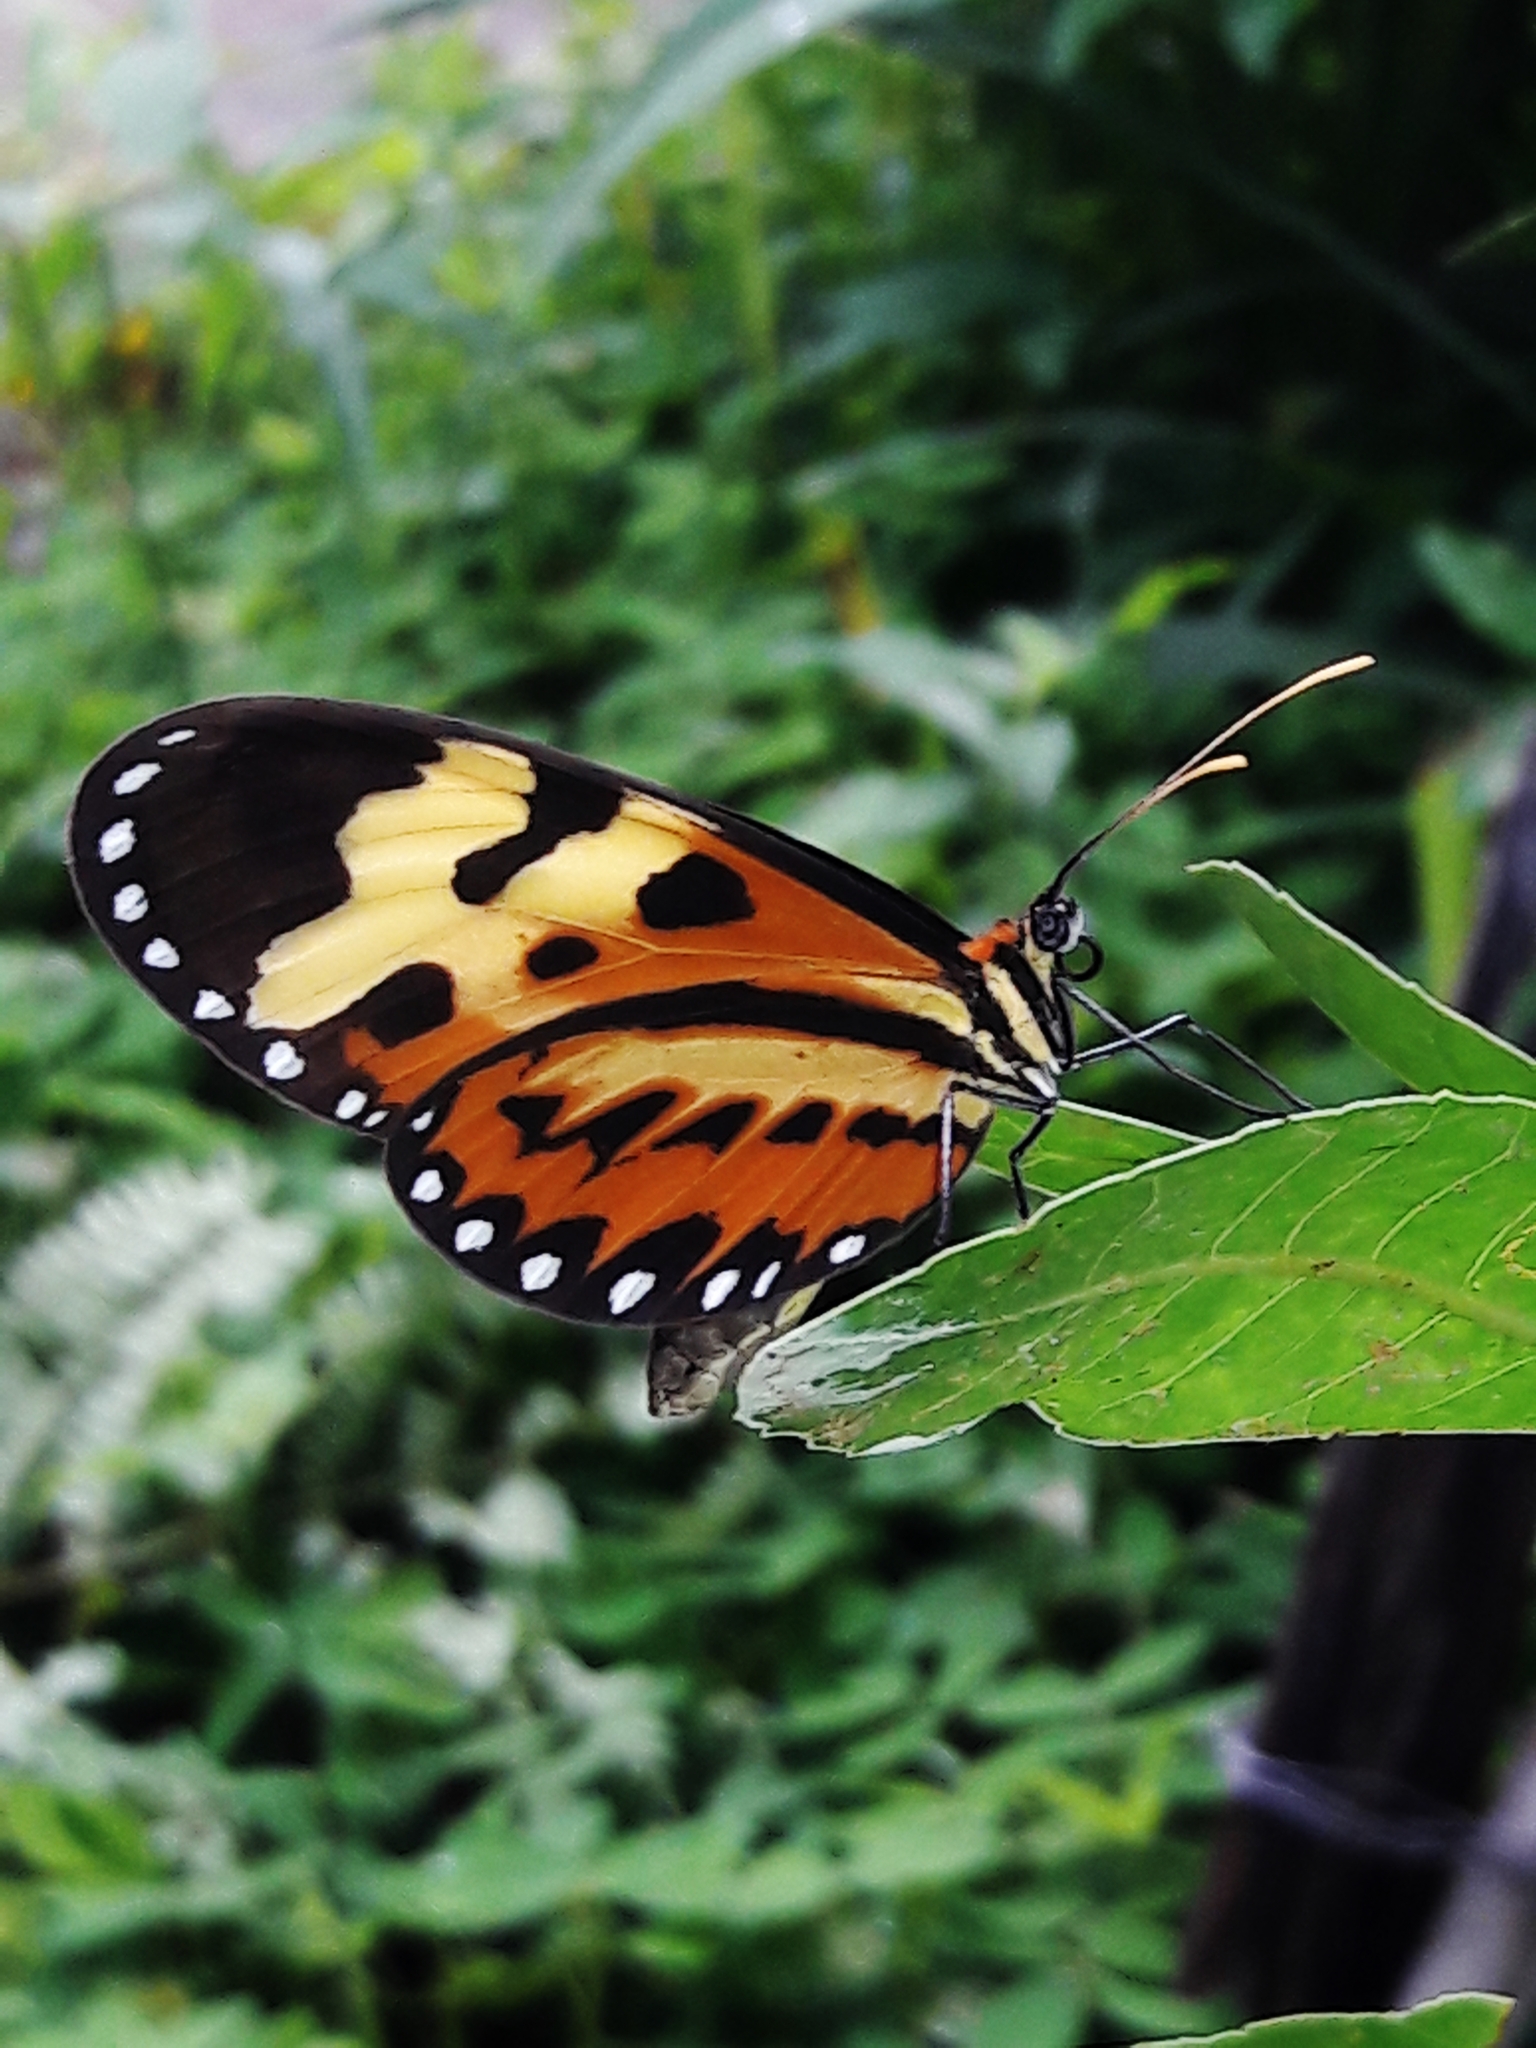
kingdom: Animalia
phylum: Arthropoda
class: Insecta
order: Lepidoptera
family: Nymphalidae
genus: Mechanitis
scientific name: Mechanitis polymnia
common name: Disturbed tigerwing
